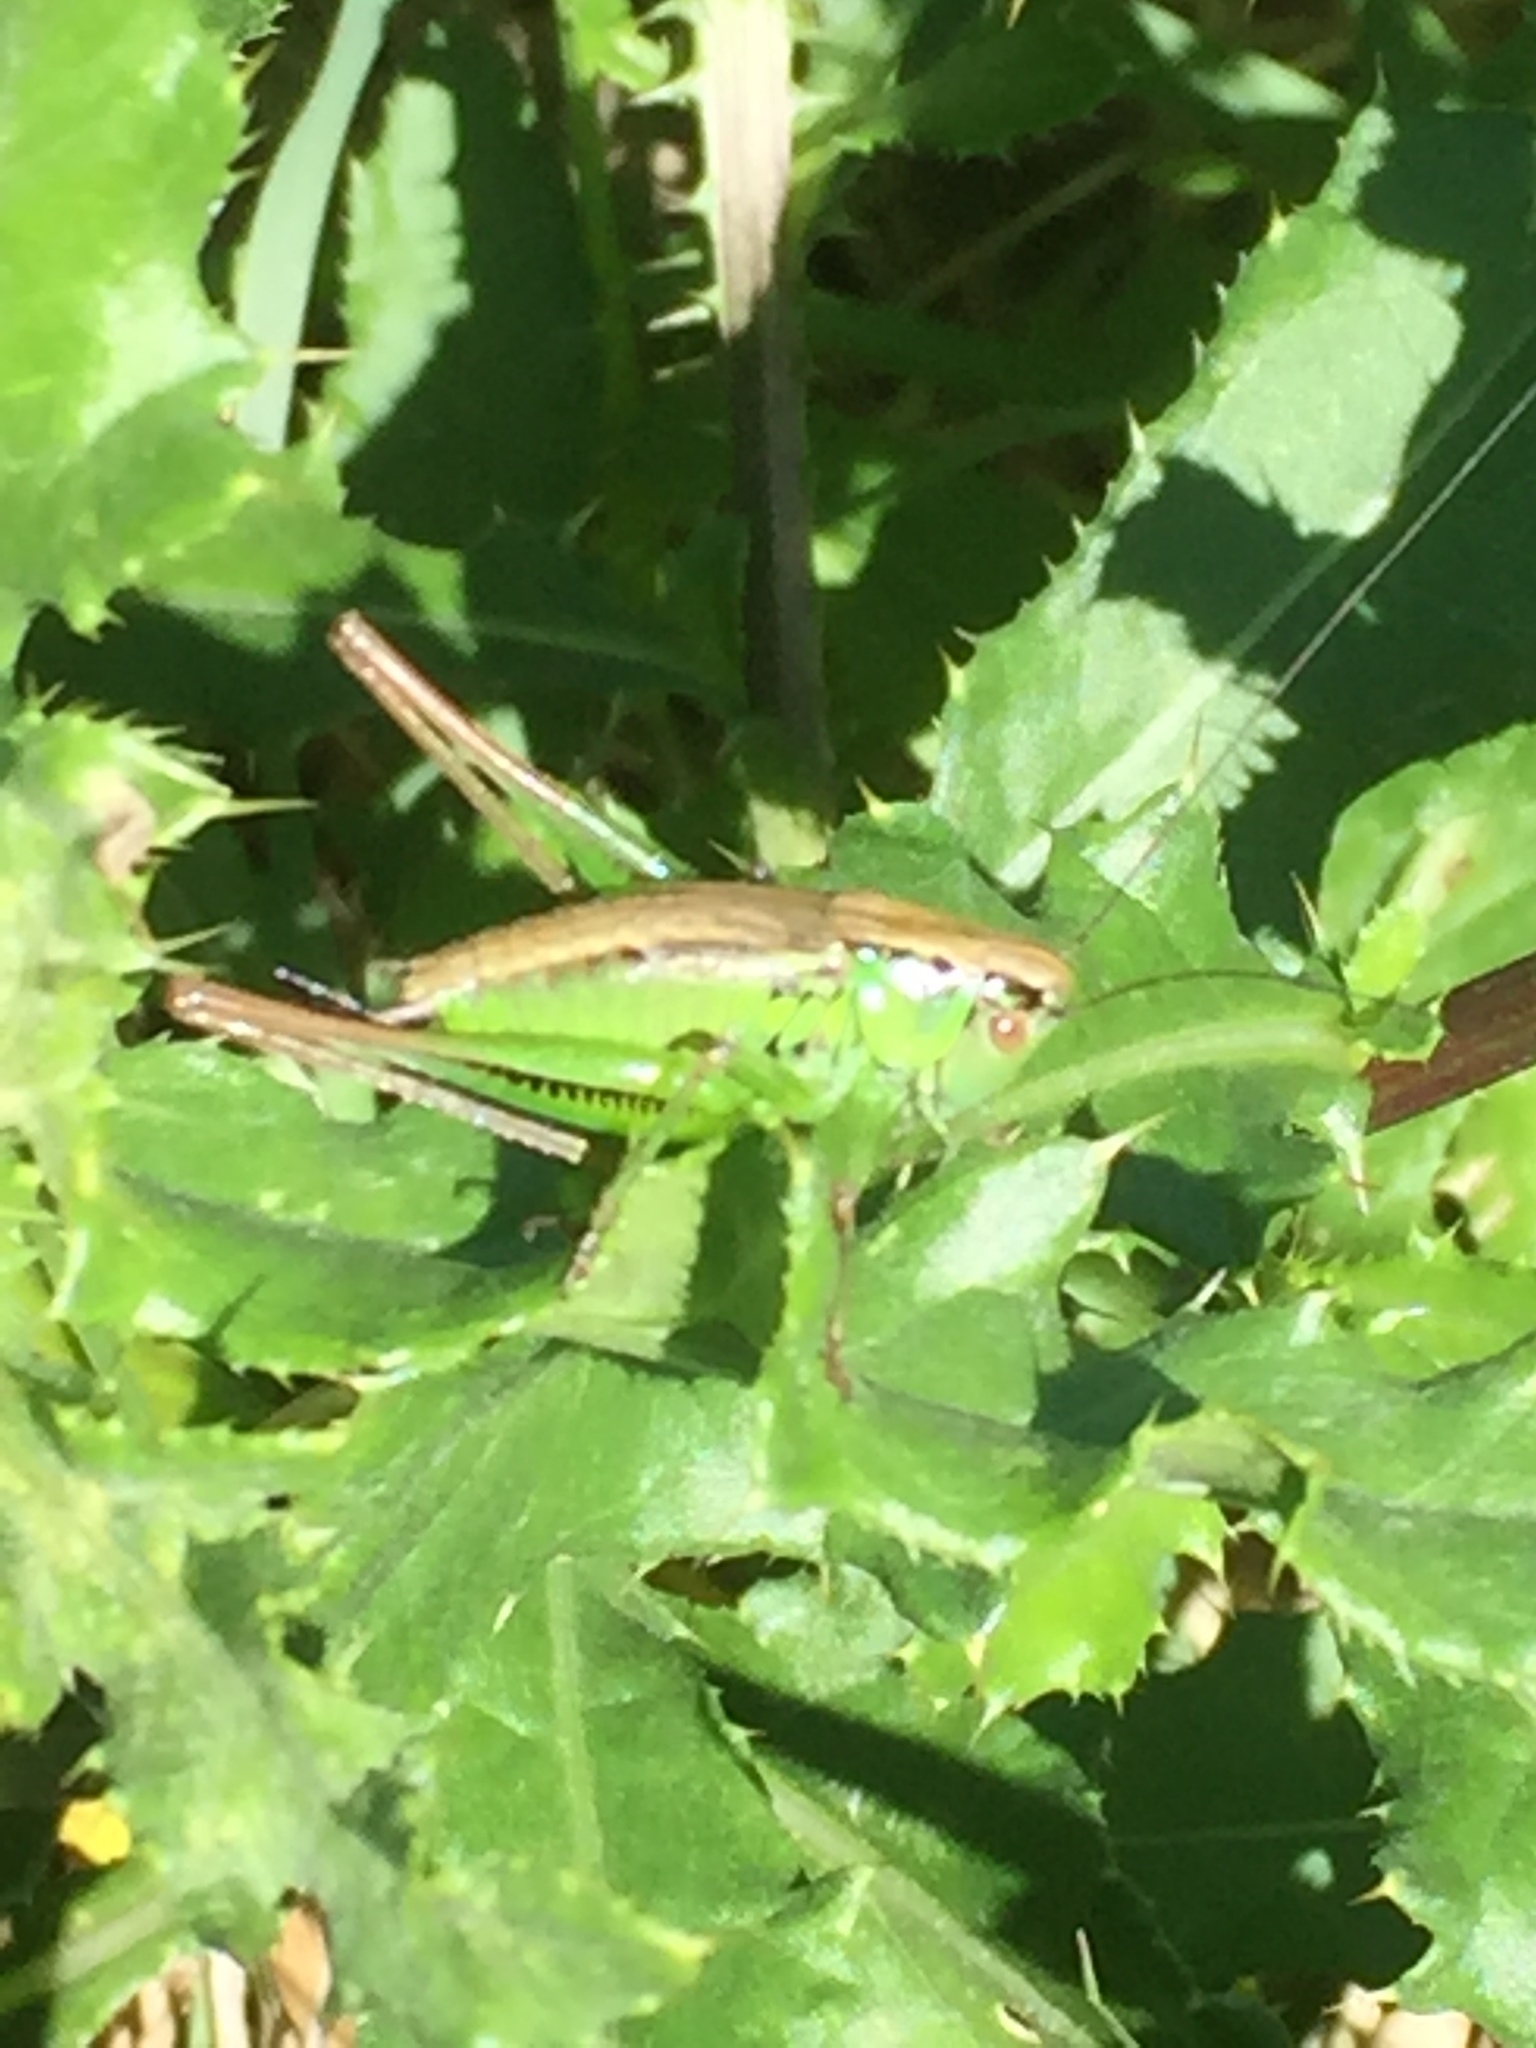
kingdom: Animalia
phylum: Arthropoda
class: Insecta
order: Orthoptera
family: Tettigoniidae
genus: Roeseliana
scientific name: Roeseliana roeselii
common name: Roesel's bush cricket
